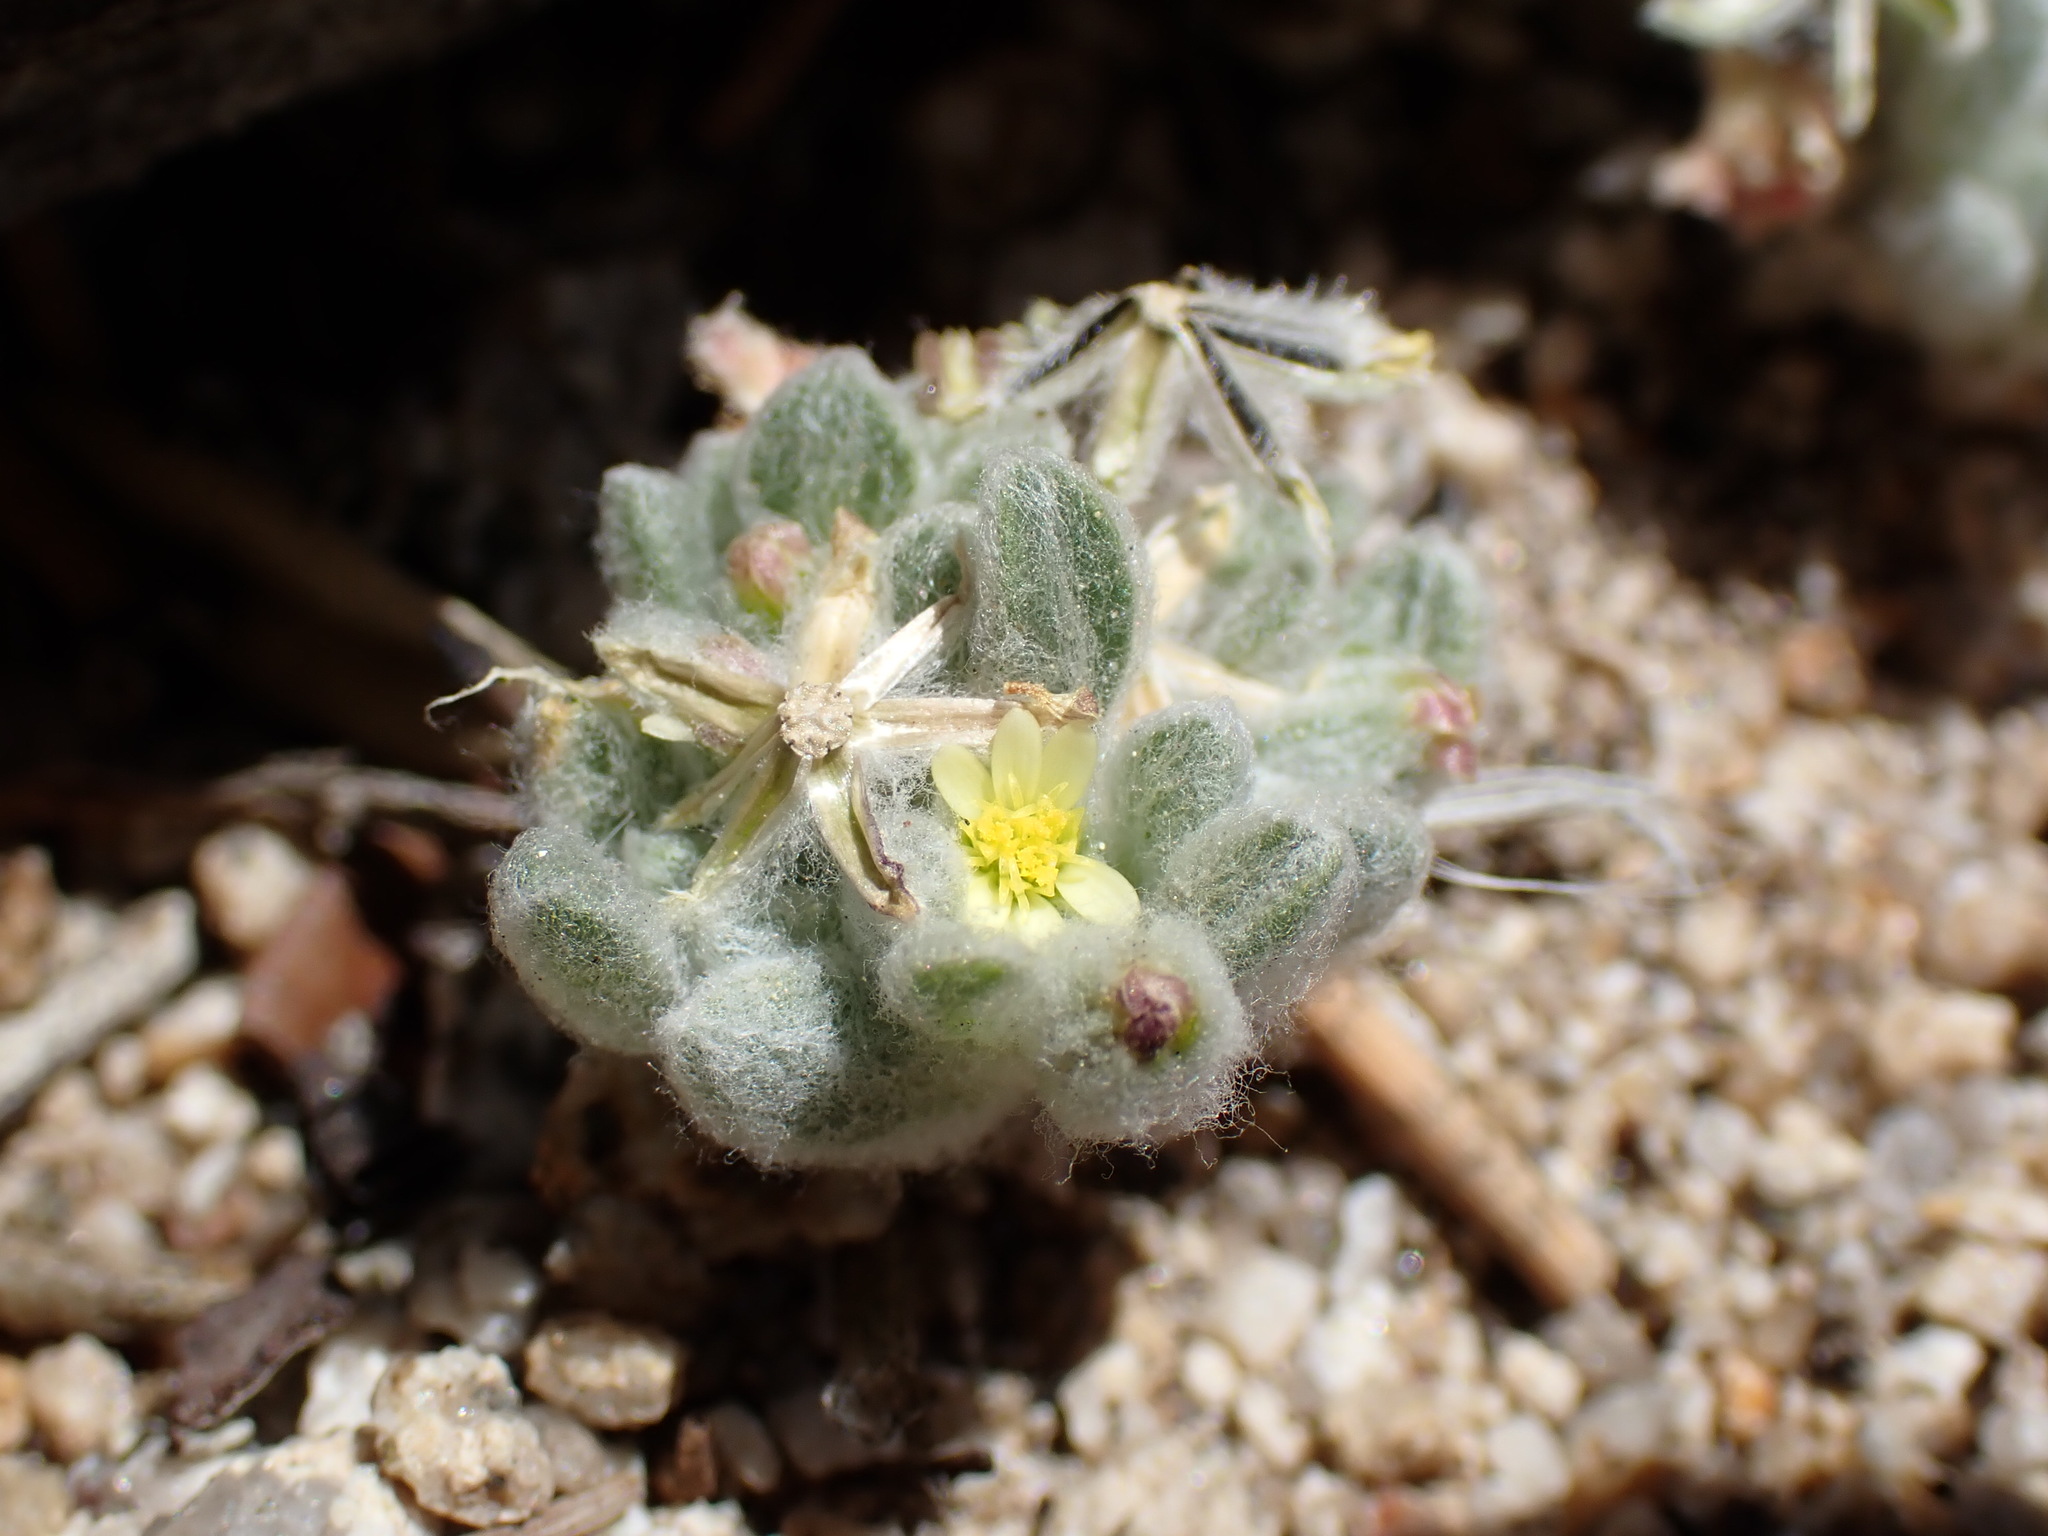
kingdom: Plantae
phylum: Tracheophyta
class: Magnoliopsida
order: Asterales
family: Asteraceae
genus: Eatonella
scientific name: Eatonella nivea
